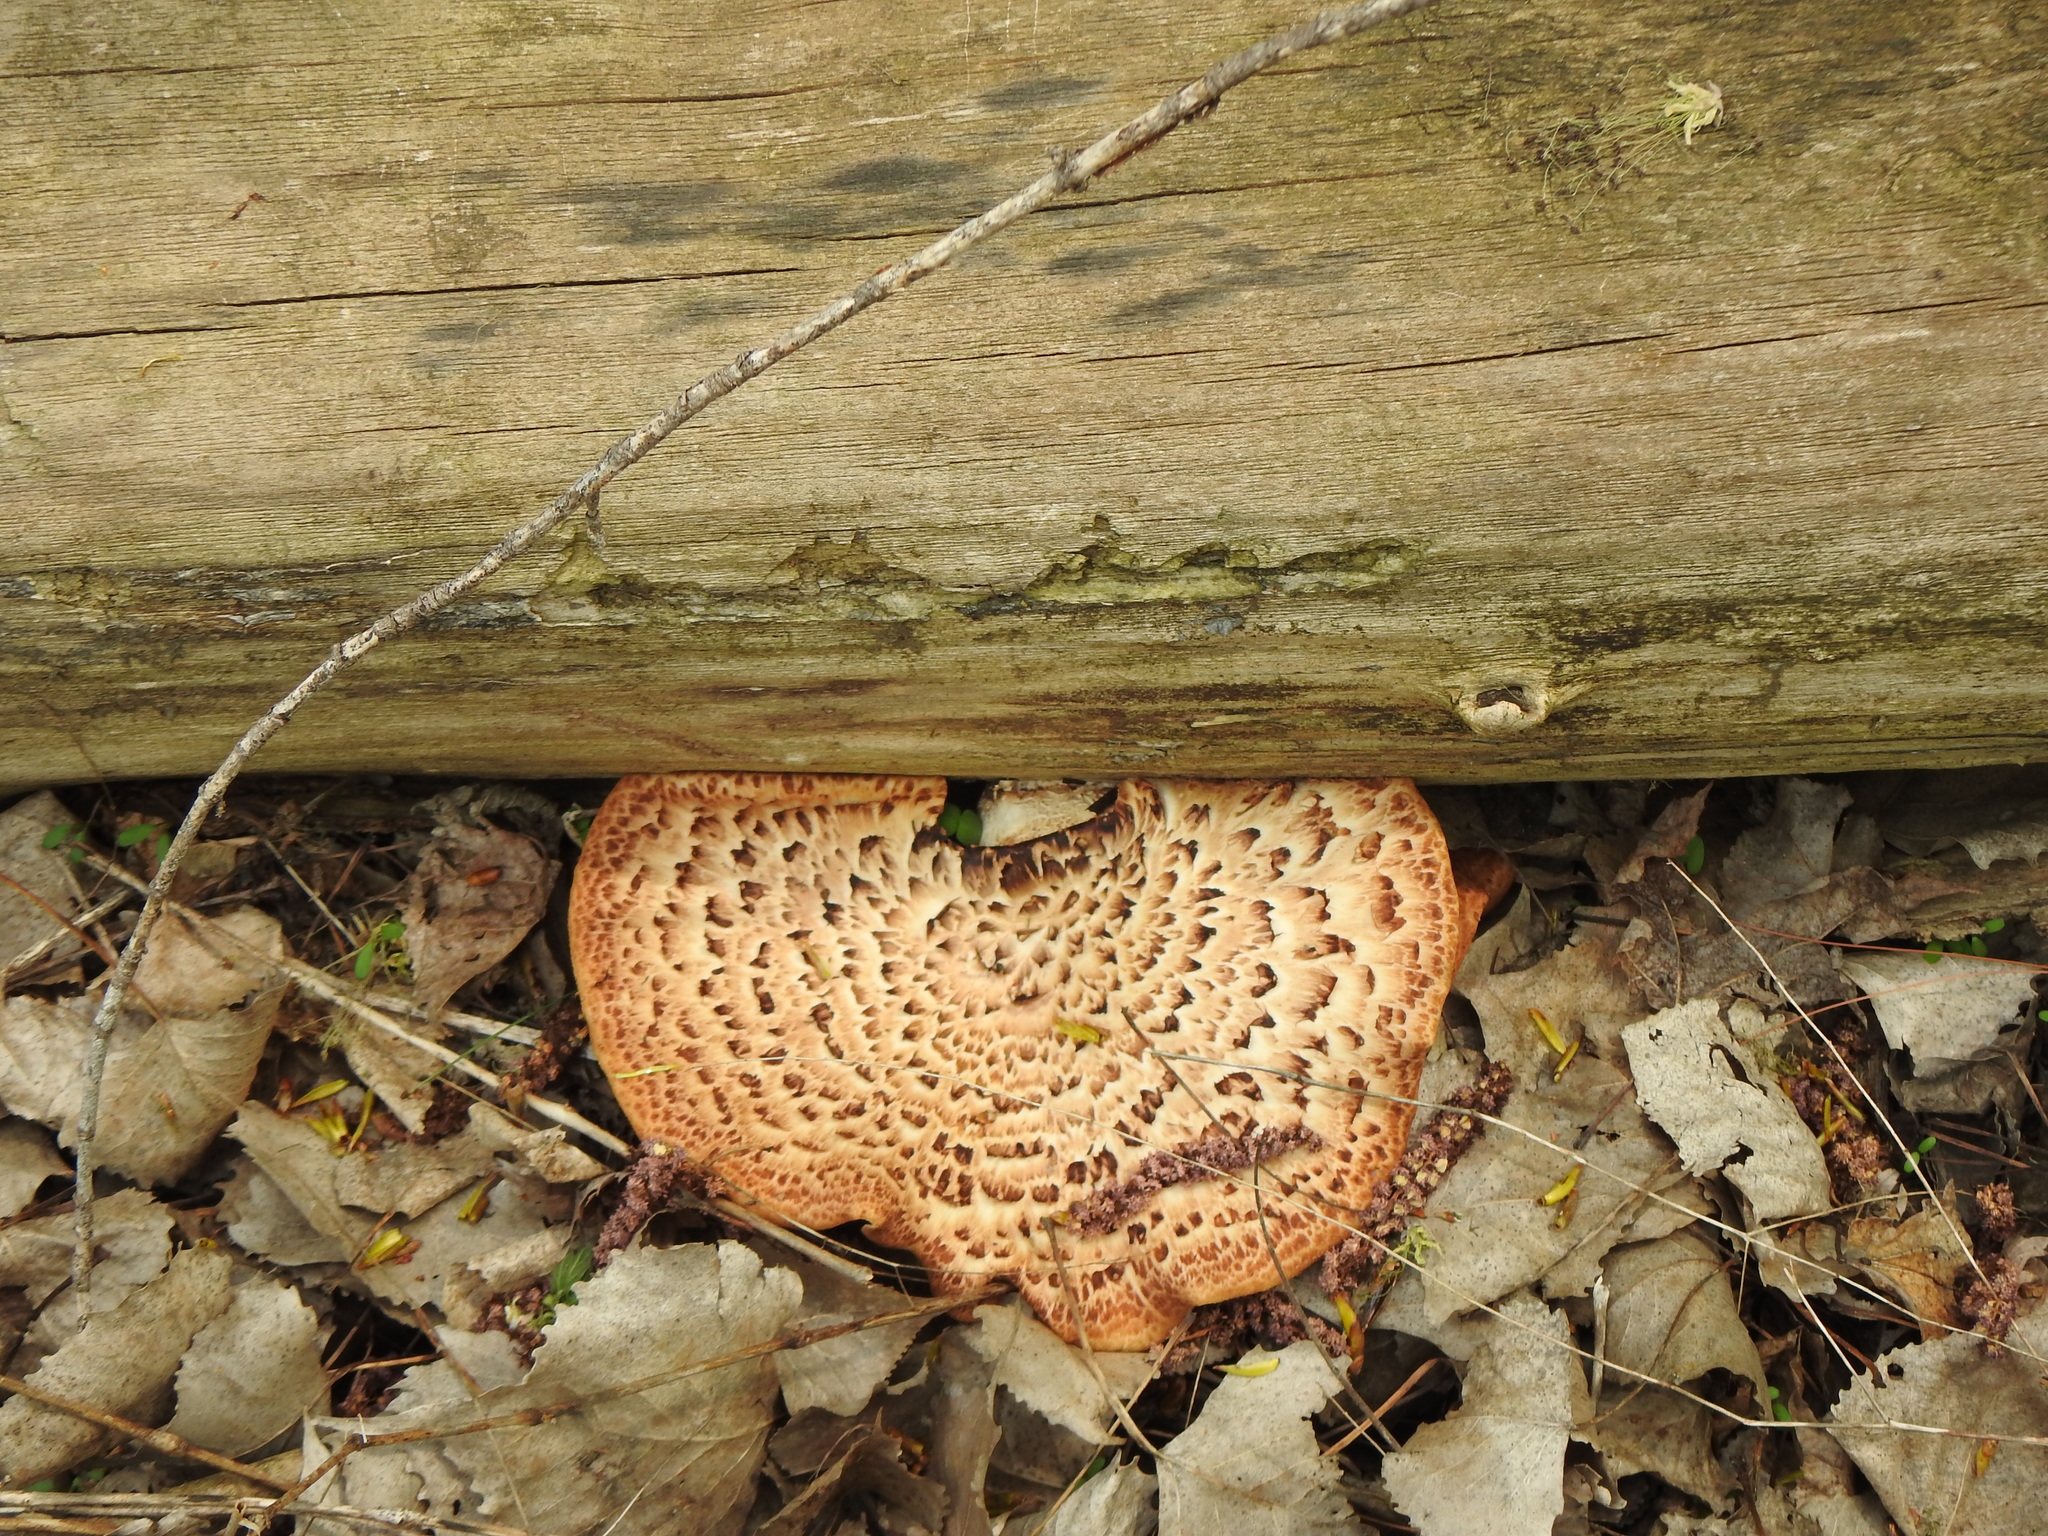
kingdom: Fungi
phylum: Basidiomycota
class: Agaricomycetes
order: Polyporales
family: Polyporaceae
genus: Cerioporus
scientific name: Cerioporus squamosus
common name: Dryad's saddle
